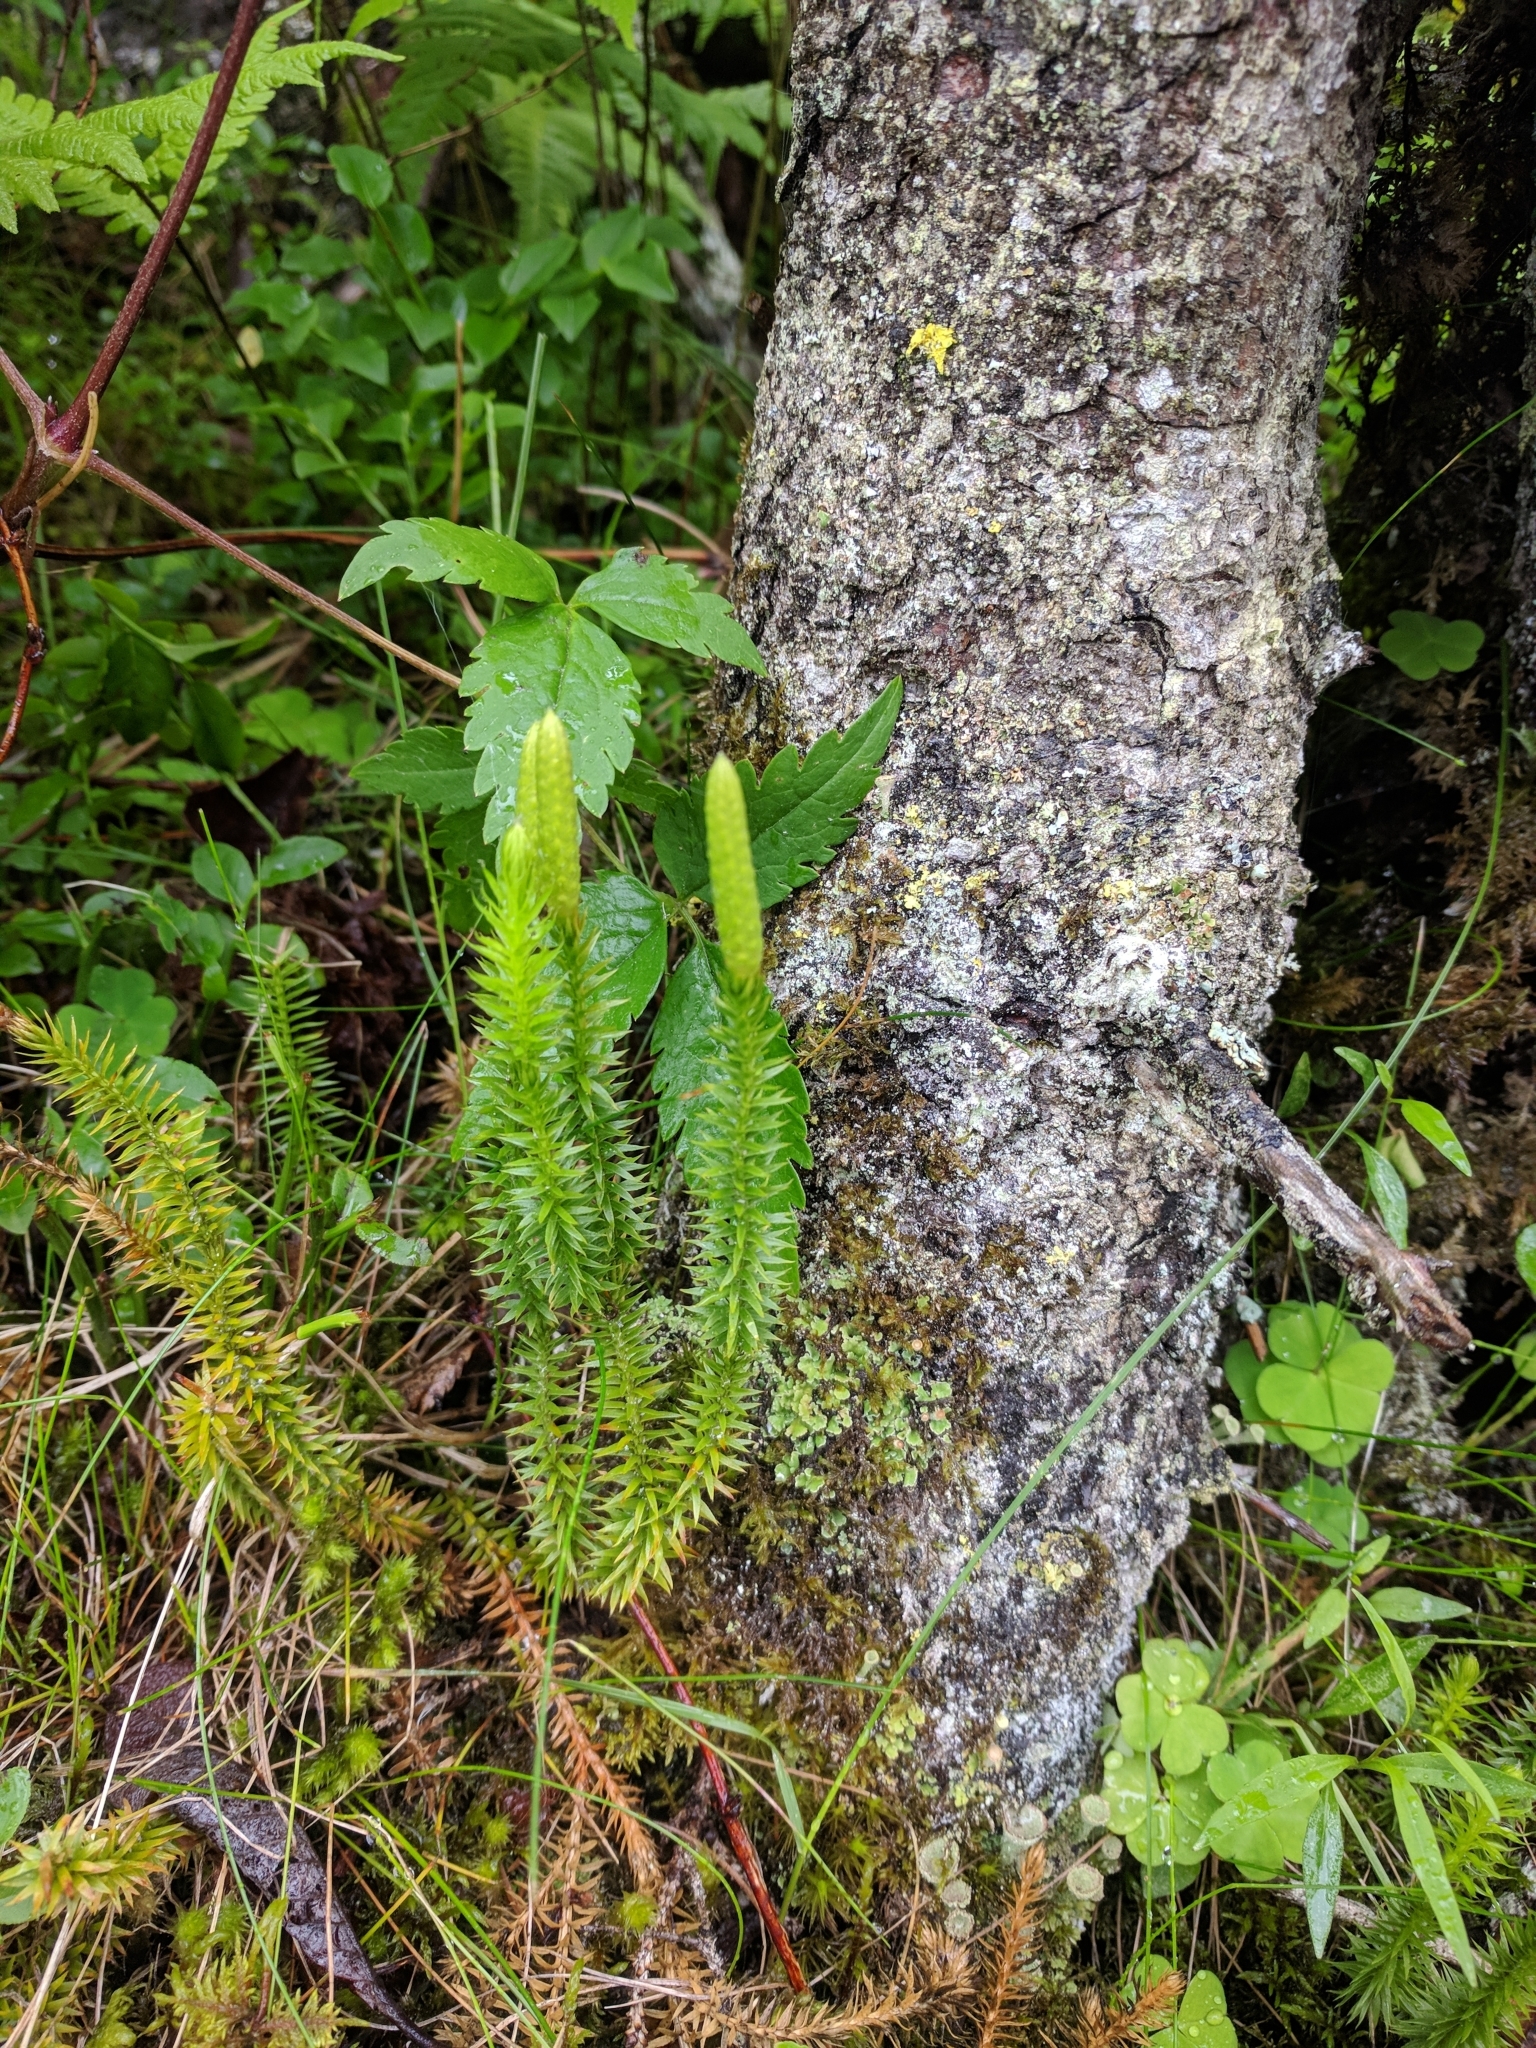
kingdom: Plantae
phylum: Tracheophyta
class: Lycopodiopsida
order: Lycopodiales
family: Lycopodiaceae
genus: Spinulum
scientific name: Spinulum annotinum
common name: Interrupted club-moss
